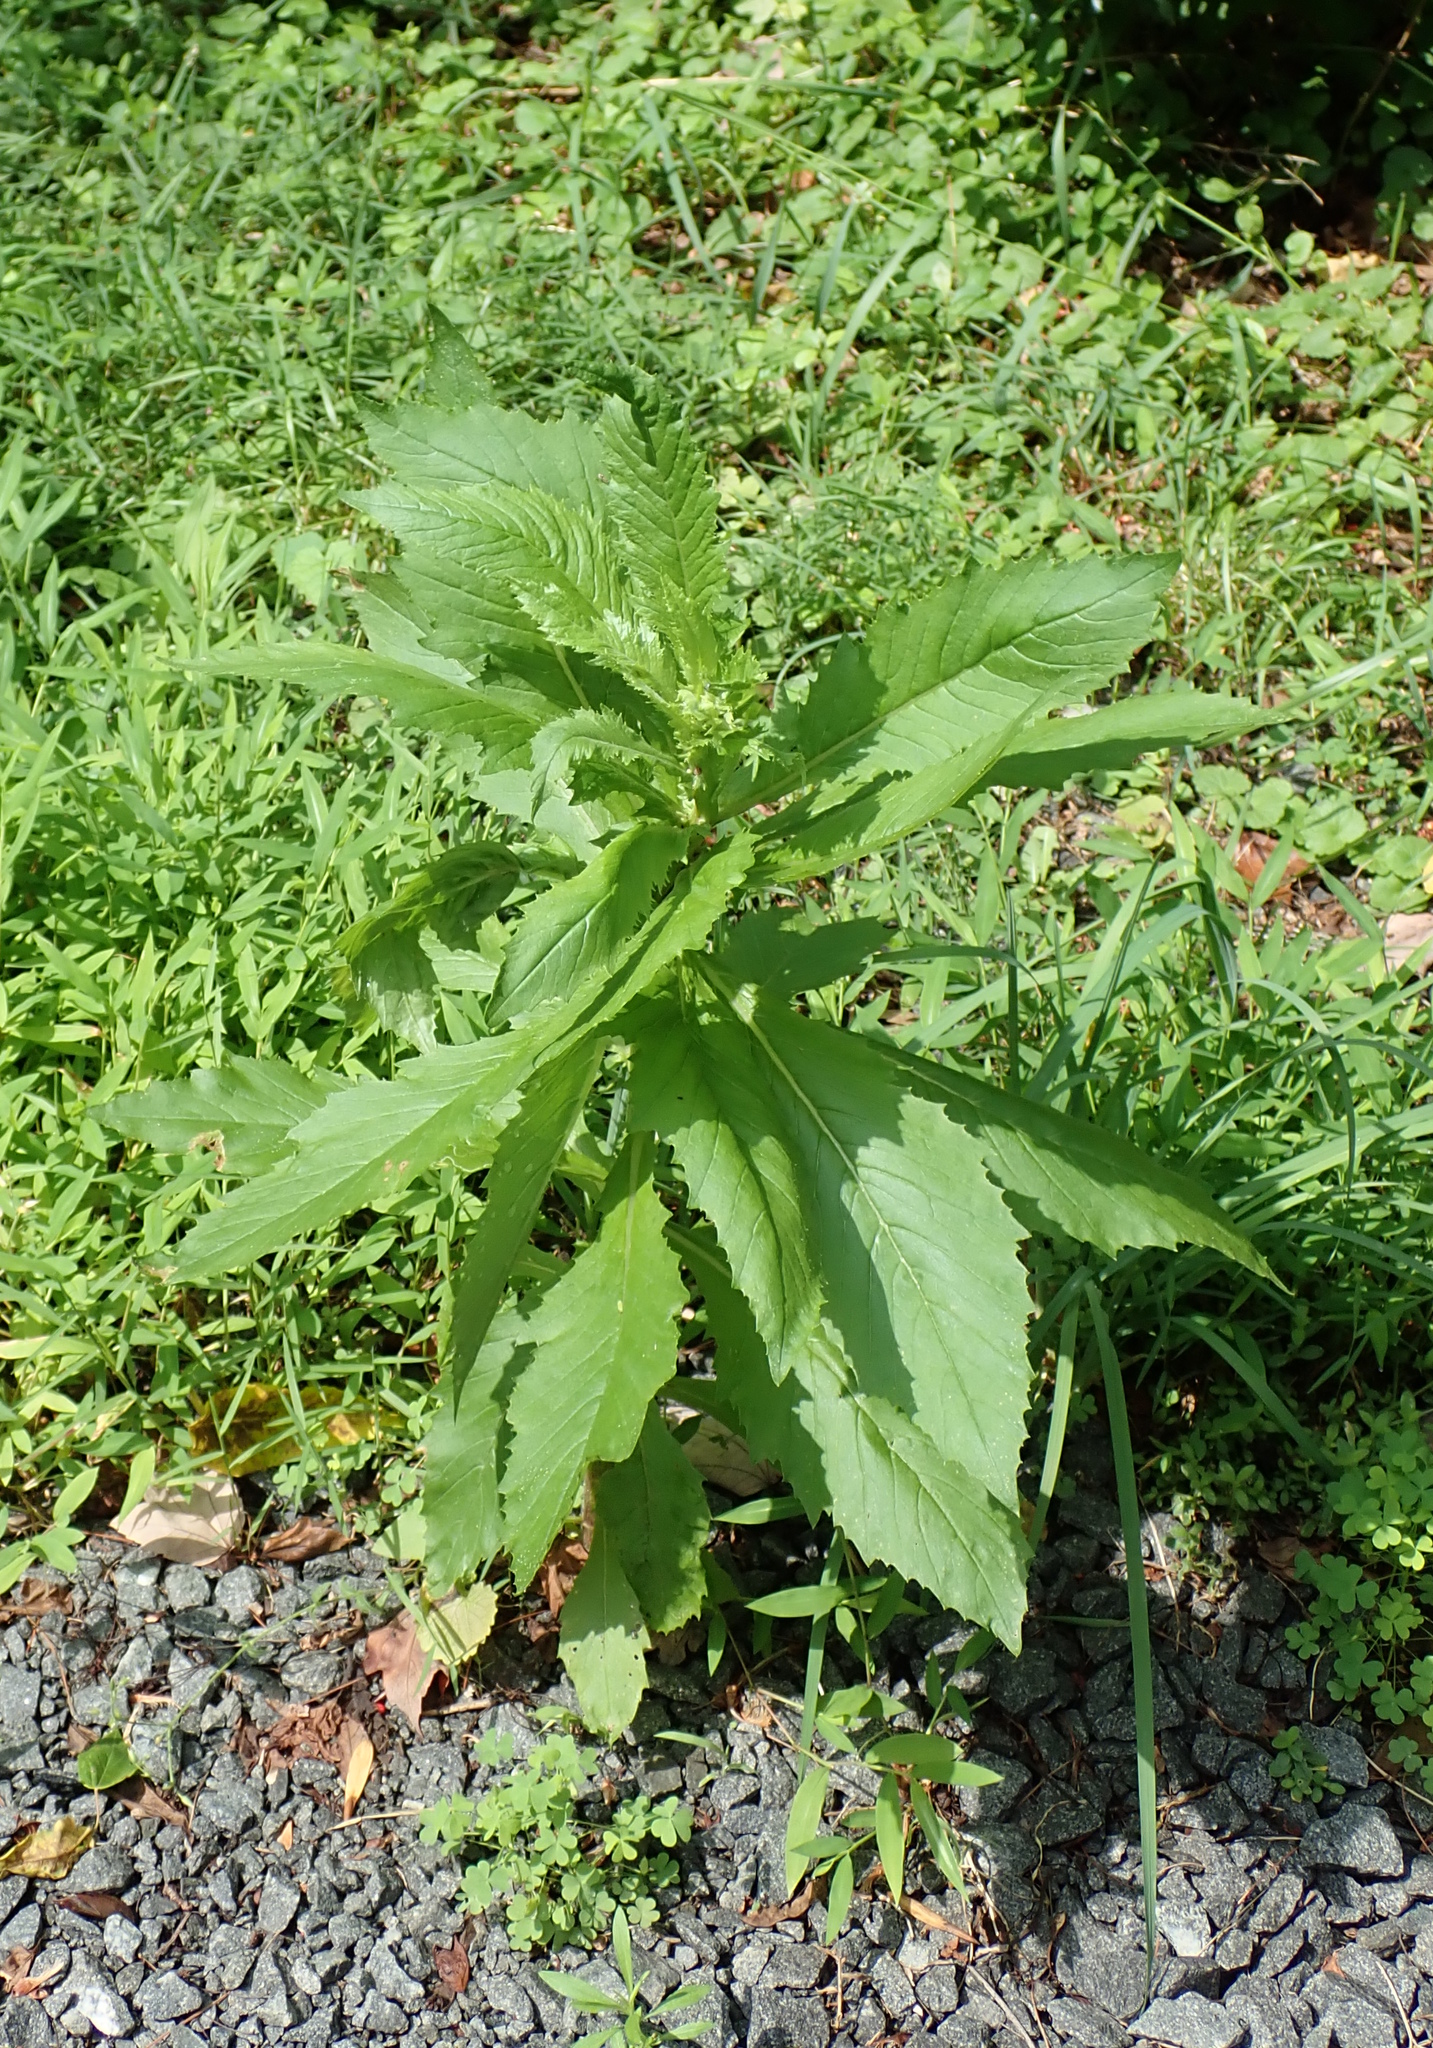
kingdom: Plantae
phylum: Tracheophyta
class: Magnoliopsida
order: Asterales
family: Asteraceae
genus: Erechtites
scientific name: Erechtites hieraciifolius
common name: American burnweed
